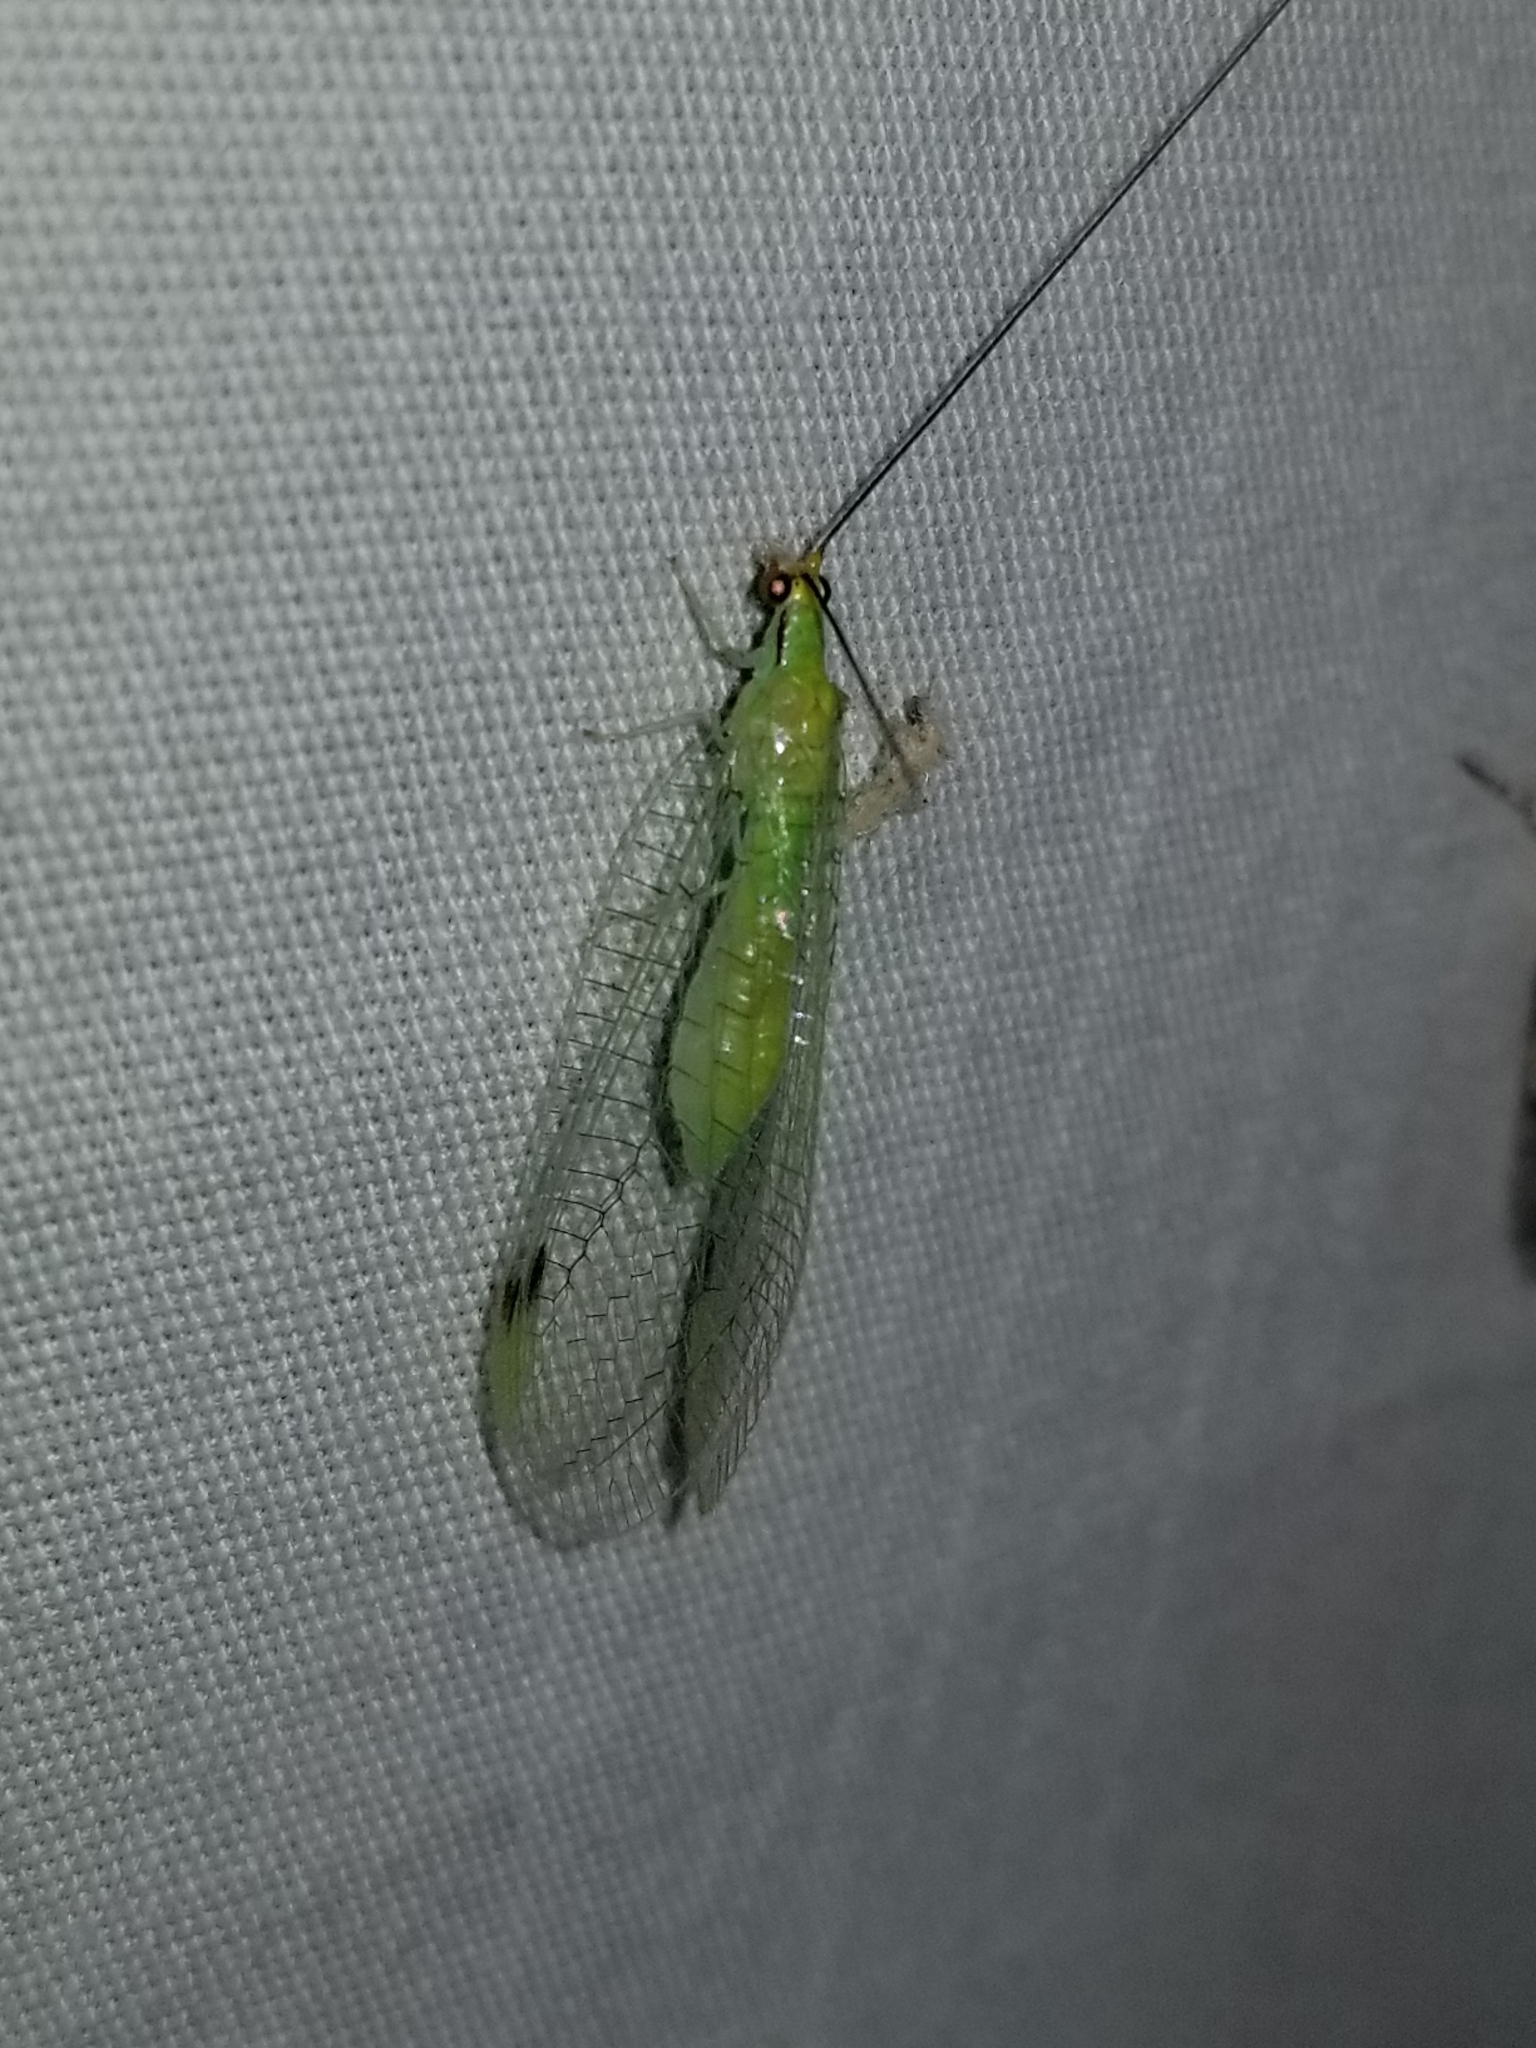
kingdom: Animalia
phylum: Arthropoda
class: Insecta
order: Neuroptera
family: Chrysopidae
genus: Leucochrysa
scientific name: Leucochrysa pavida
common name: Lichen-carrying green lacewing
